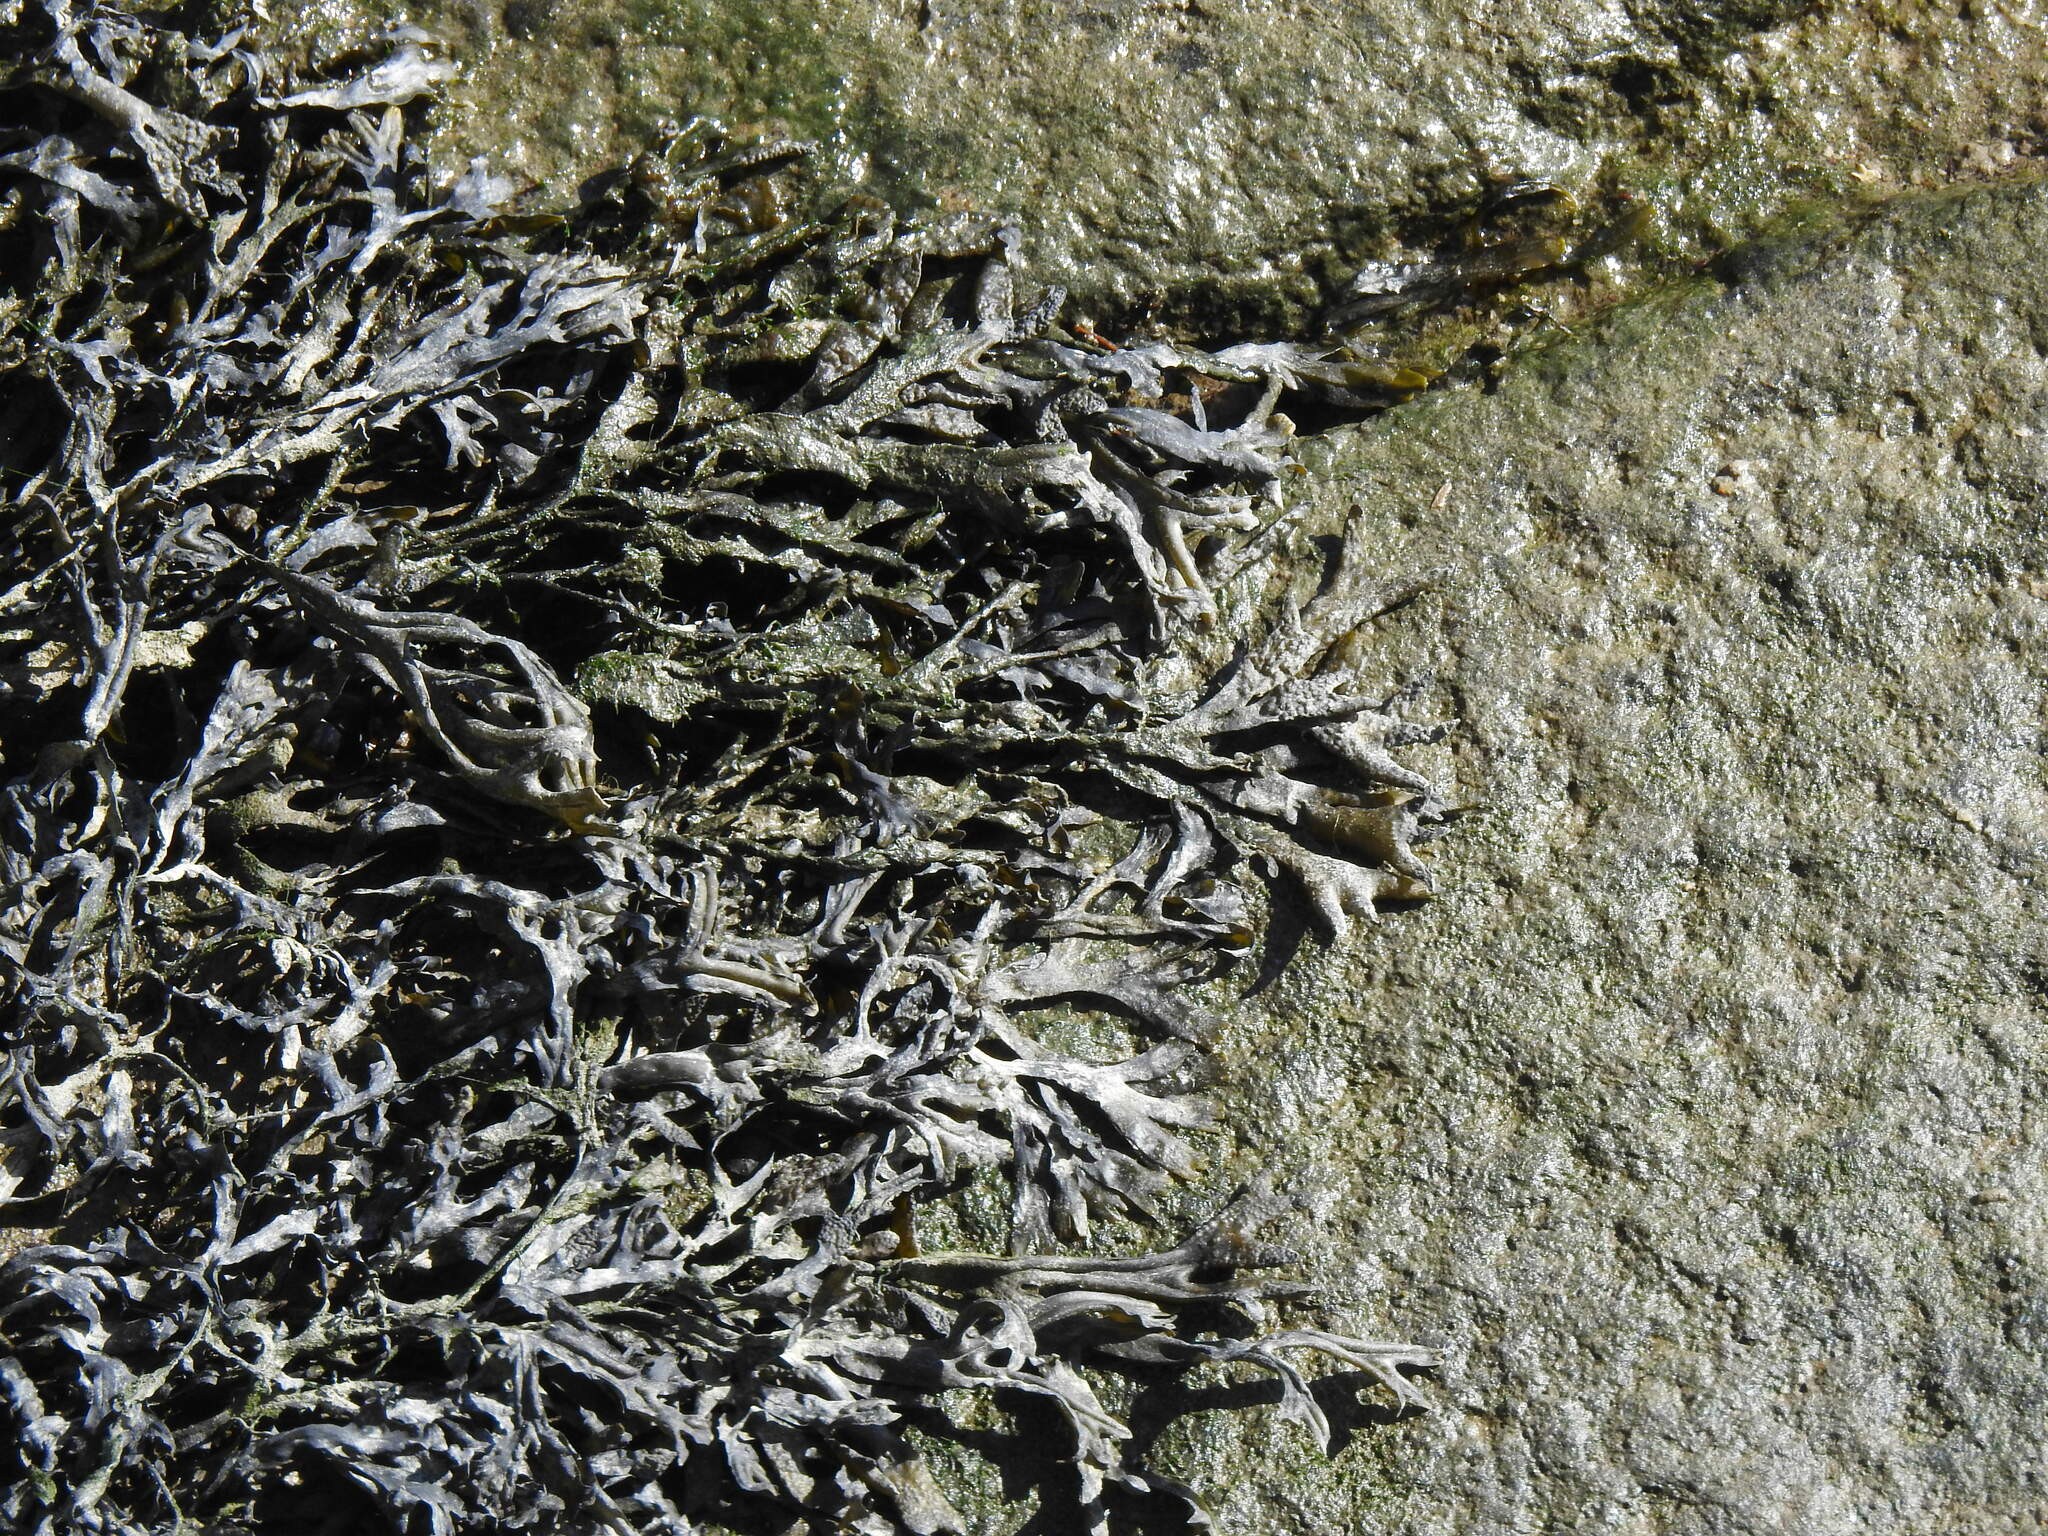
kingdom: Chromista
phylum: Ochrophyta
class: Phaeophyceae
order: Fucales
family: Fucaceae
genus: Fucus
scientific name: Fucus ceranoides
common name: Horned wrack
